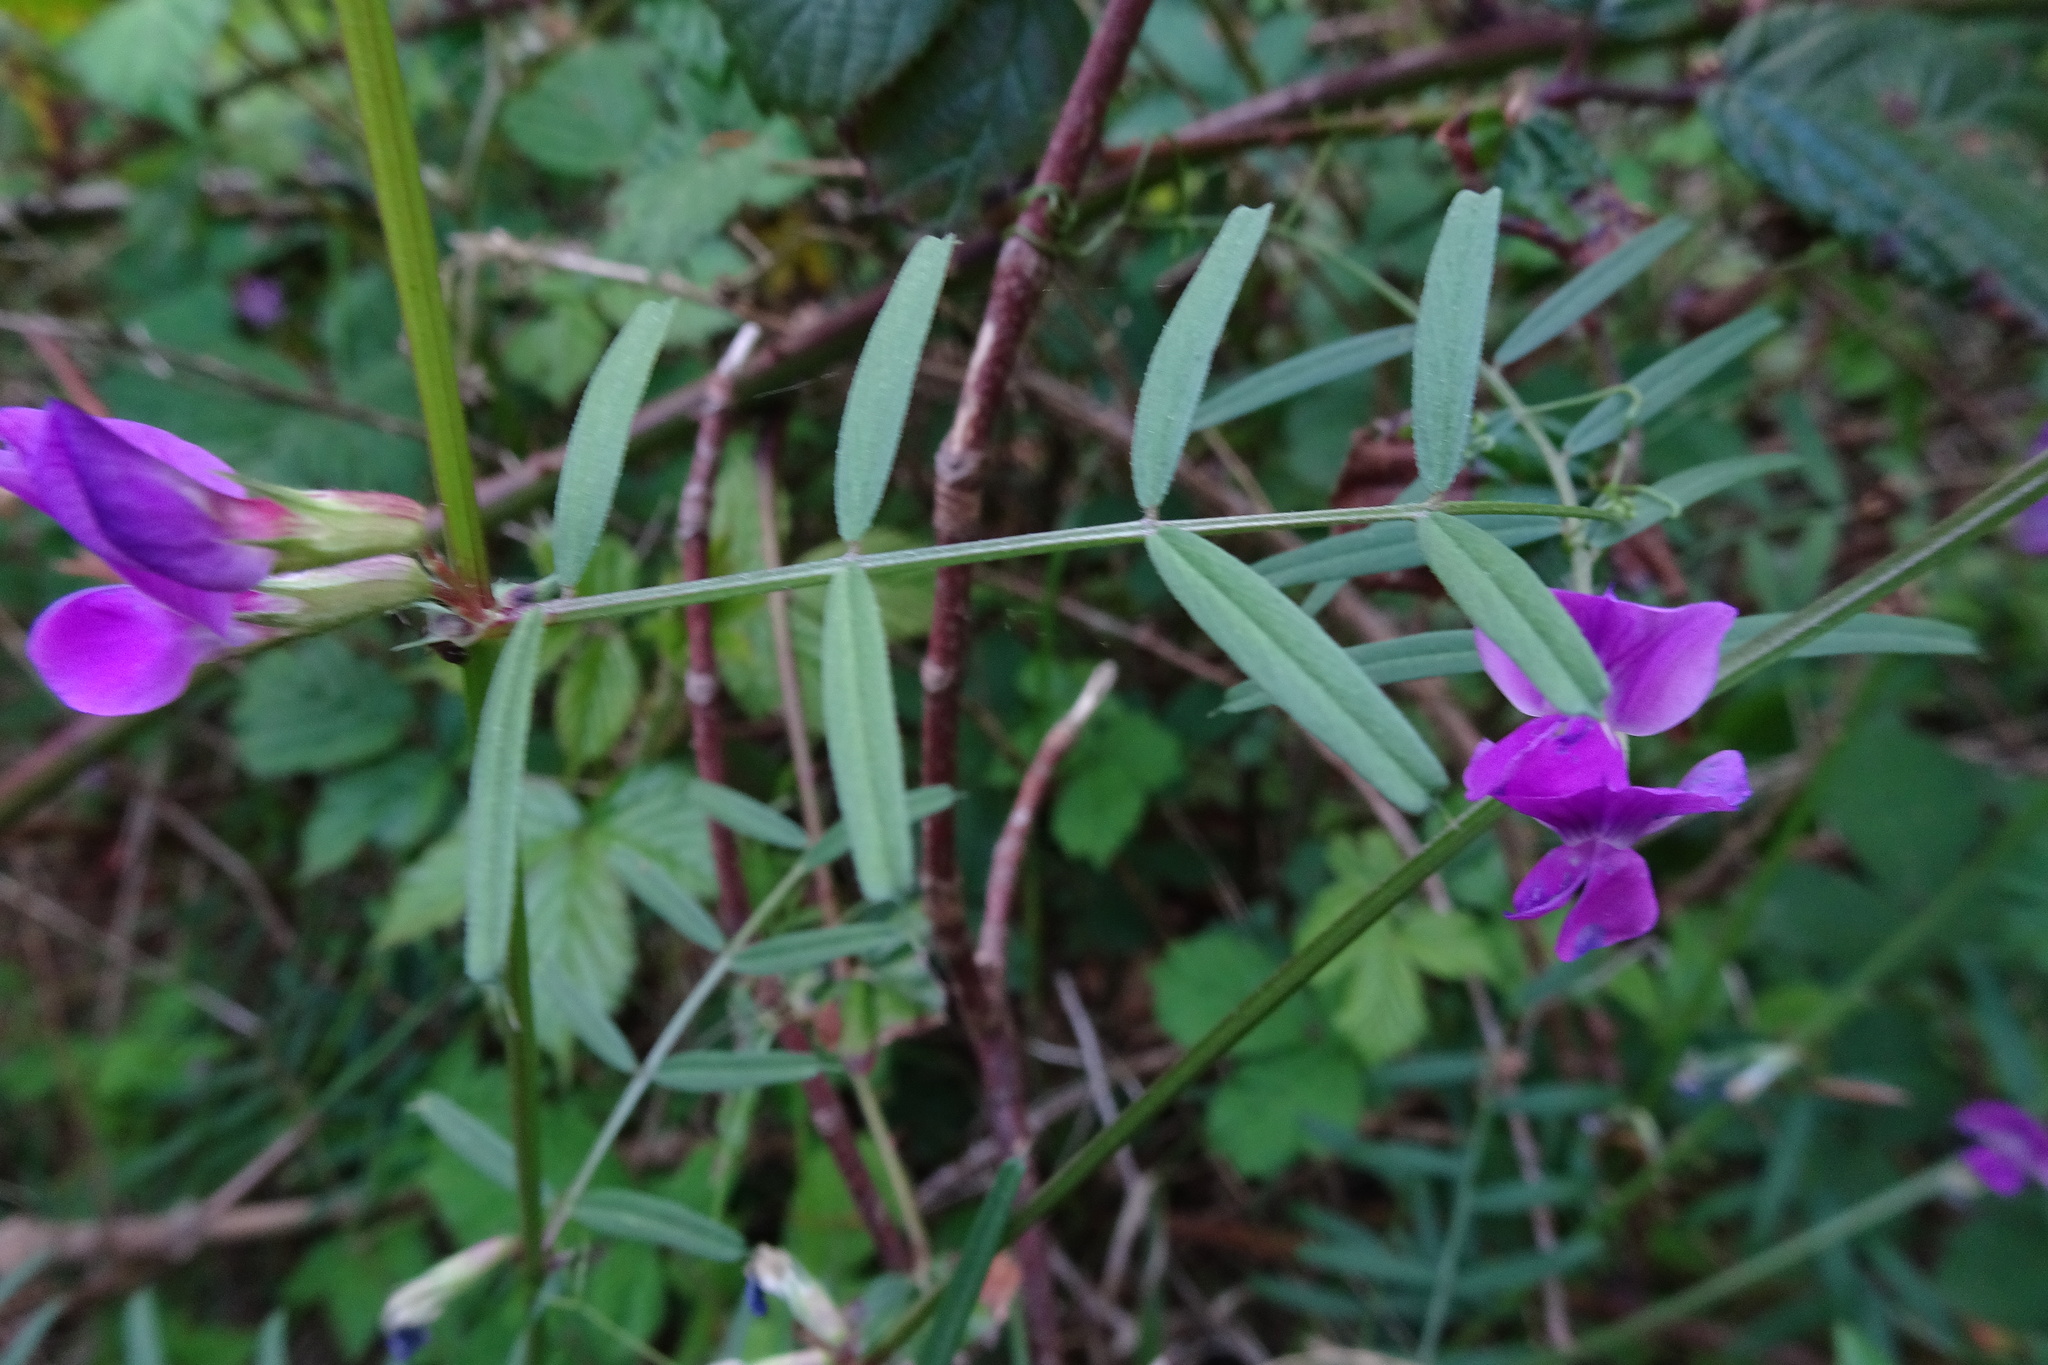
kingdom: Plantae
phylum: Tracheophyta
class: Magnoliopsida
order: Fabales
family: Fabaceae
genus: Vicia
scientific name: Vicia sativa
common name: Garden vetch
